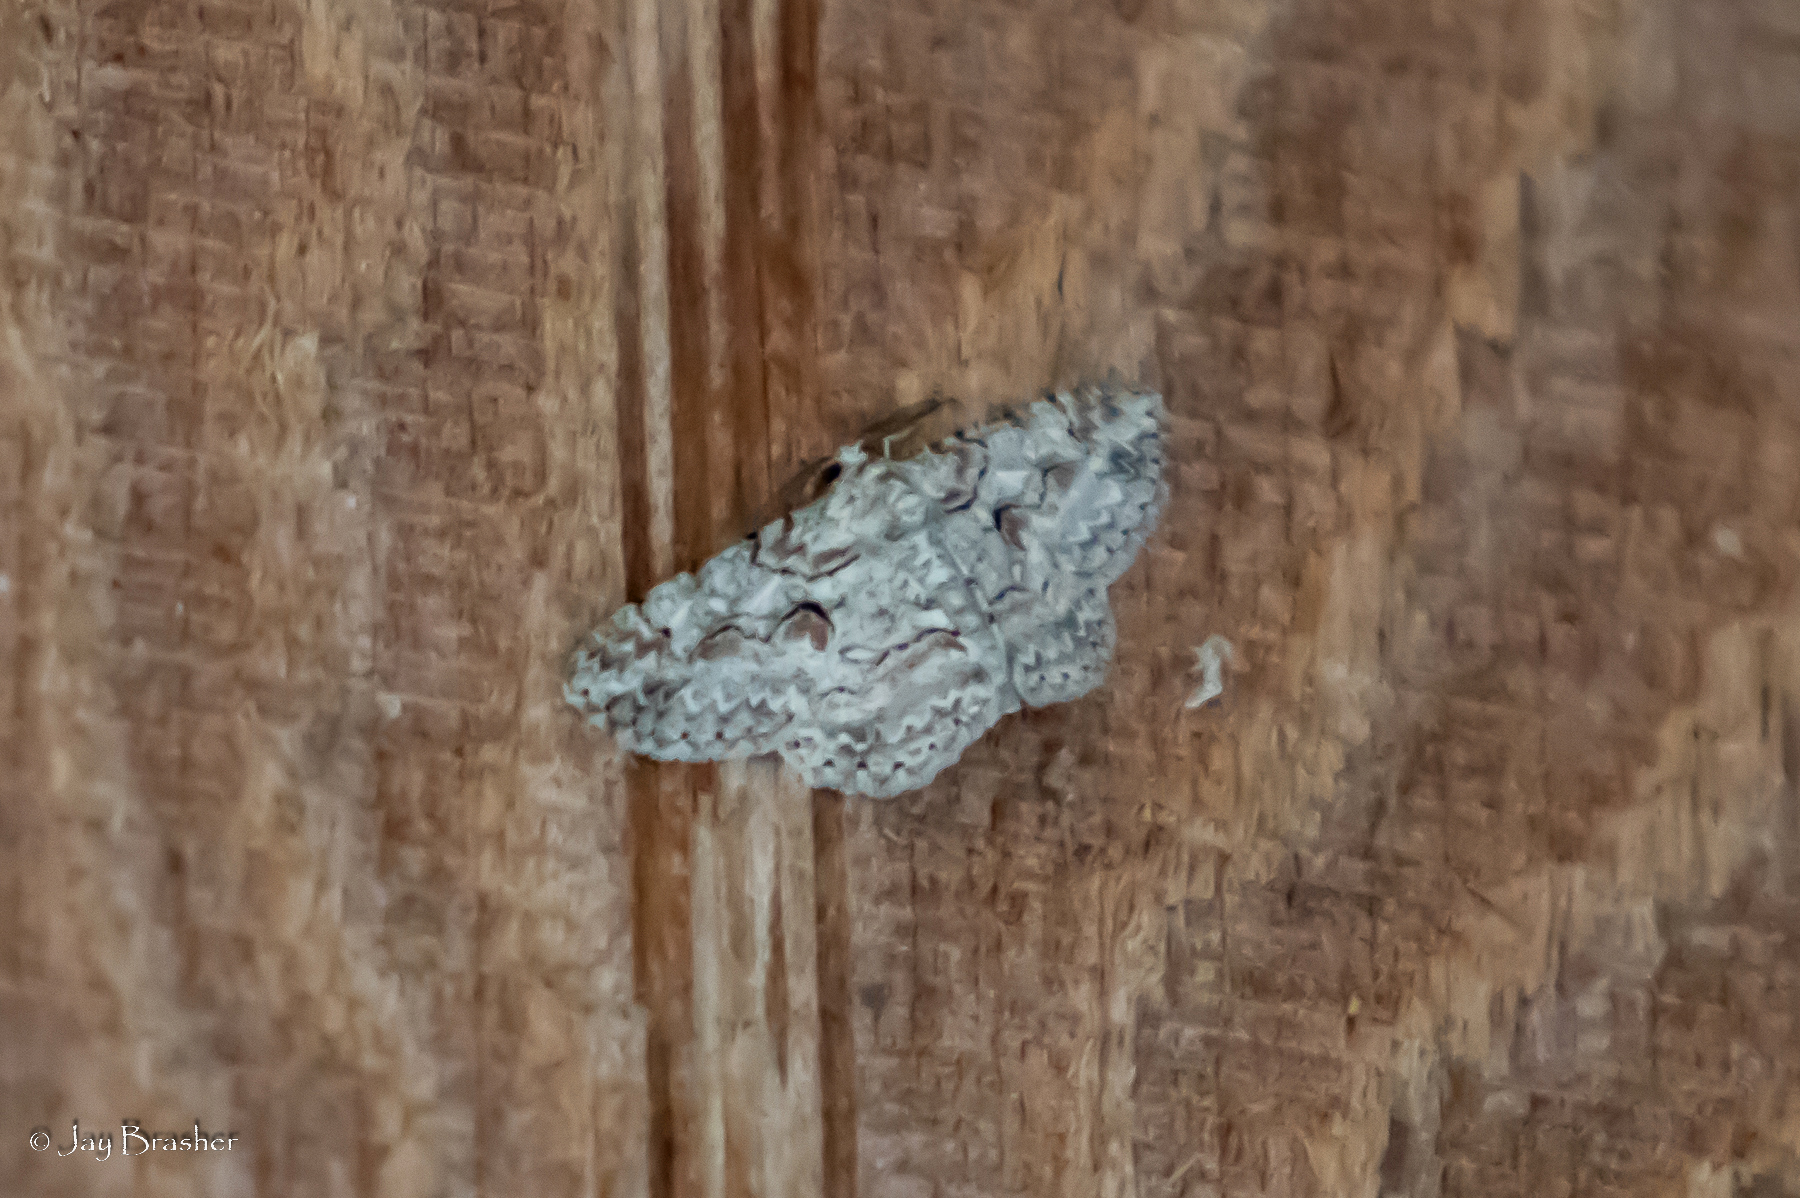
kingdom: Animalia
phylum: Arthropoda
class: Insecta
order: Lepidoptera
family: Geometridae
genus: Iridopsis
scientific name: Iridopsis defectaria
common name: Brown-shaded gray
